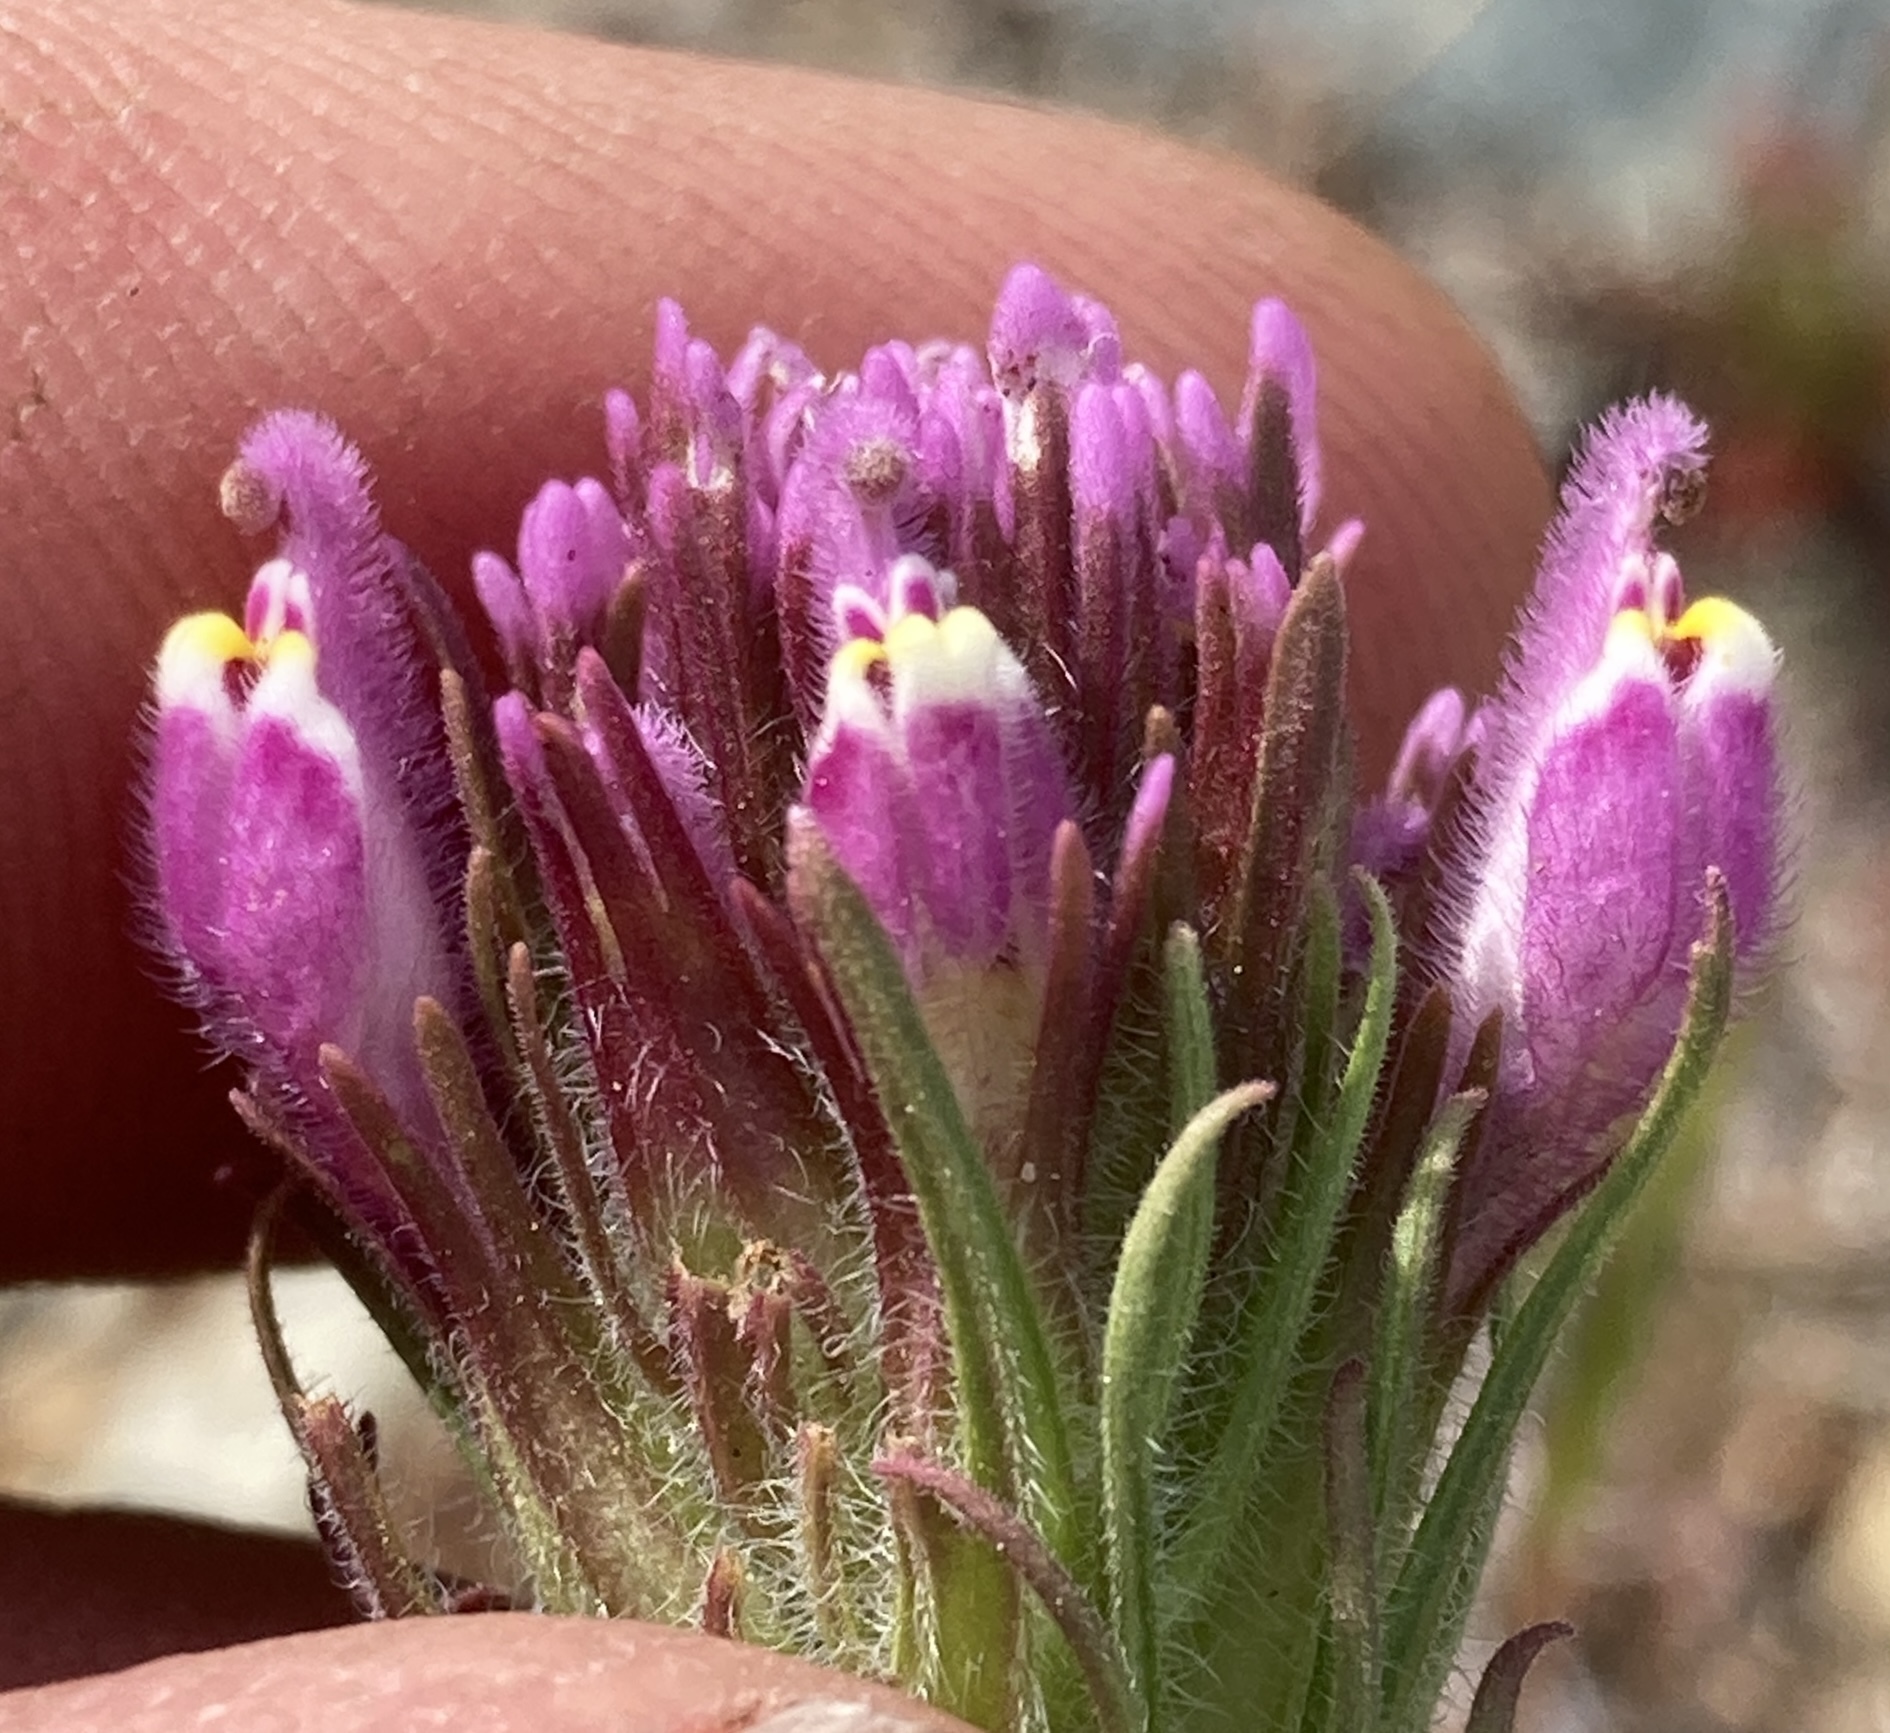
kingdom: Plantae
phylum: Tracheophyta
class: Magnoliopsida
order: Lamiales
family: Orobanchaceae
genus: Castilleja
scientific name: Castilleja exserta
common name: Purple owl-clover
